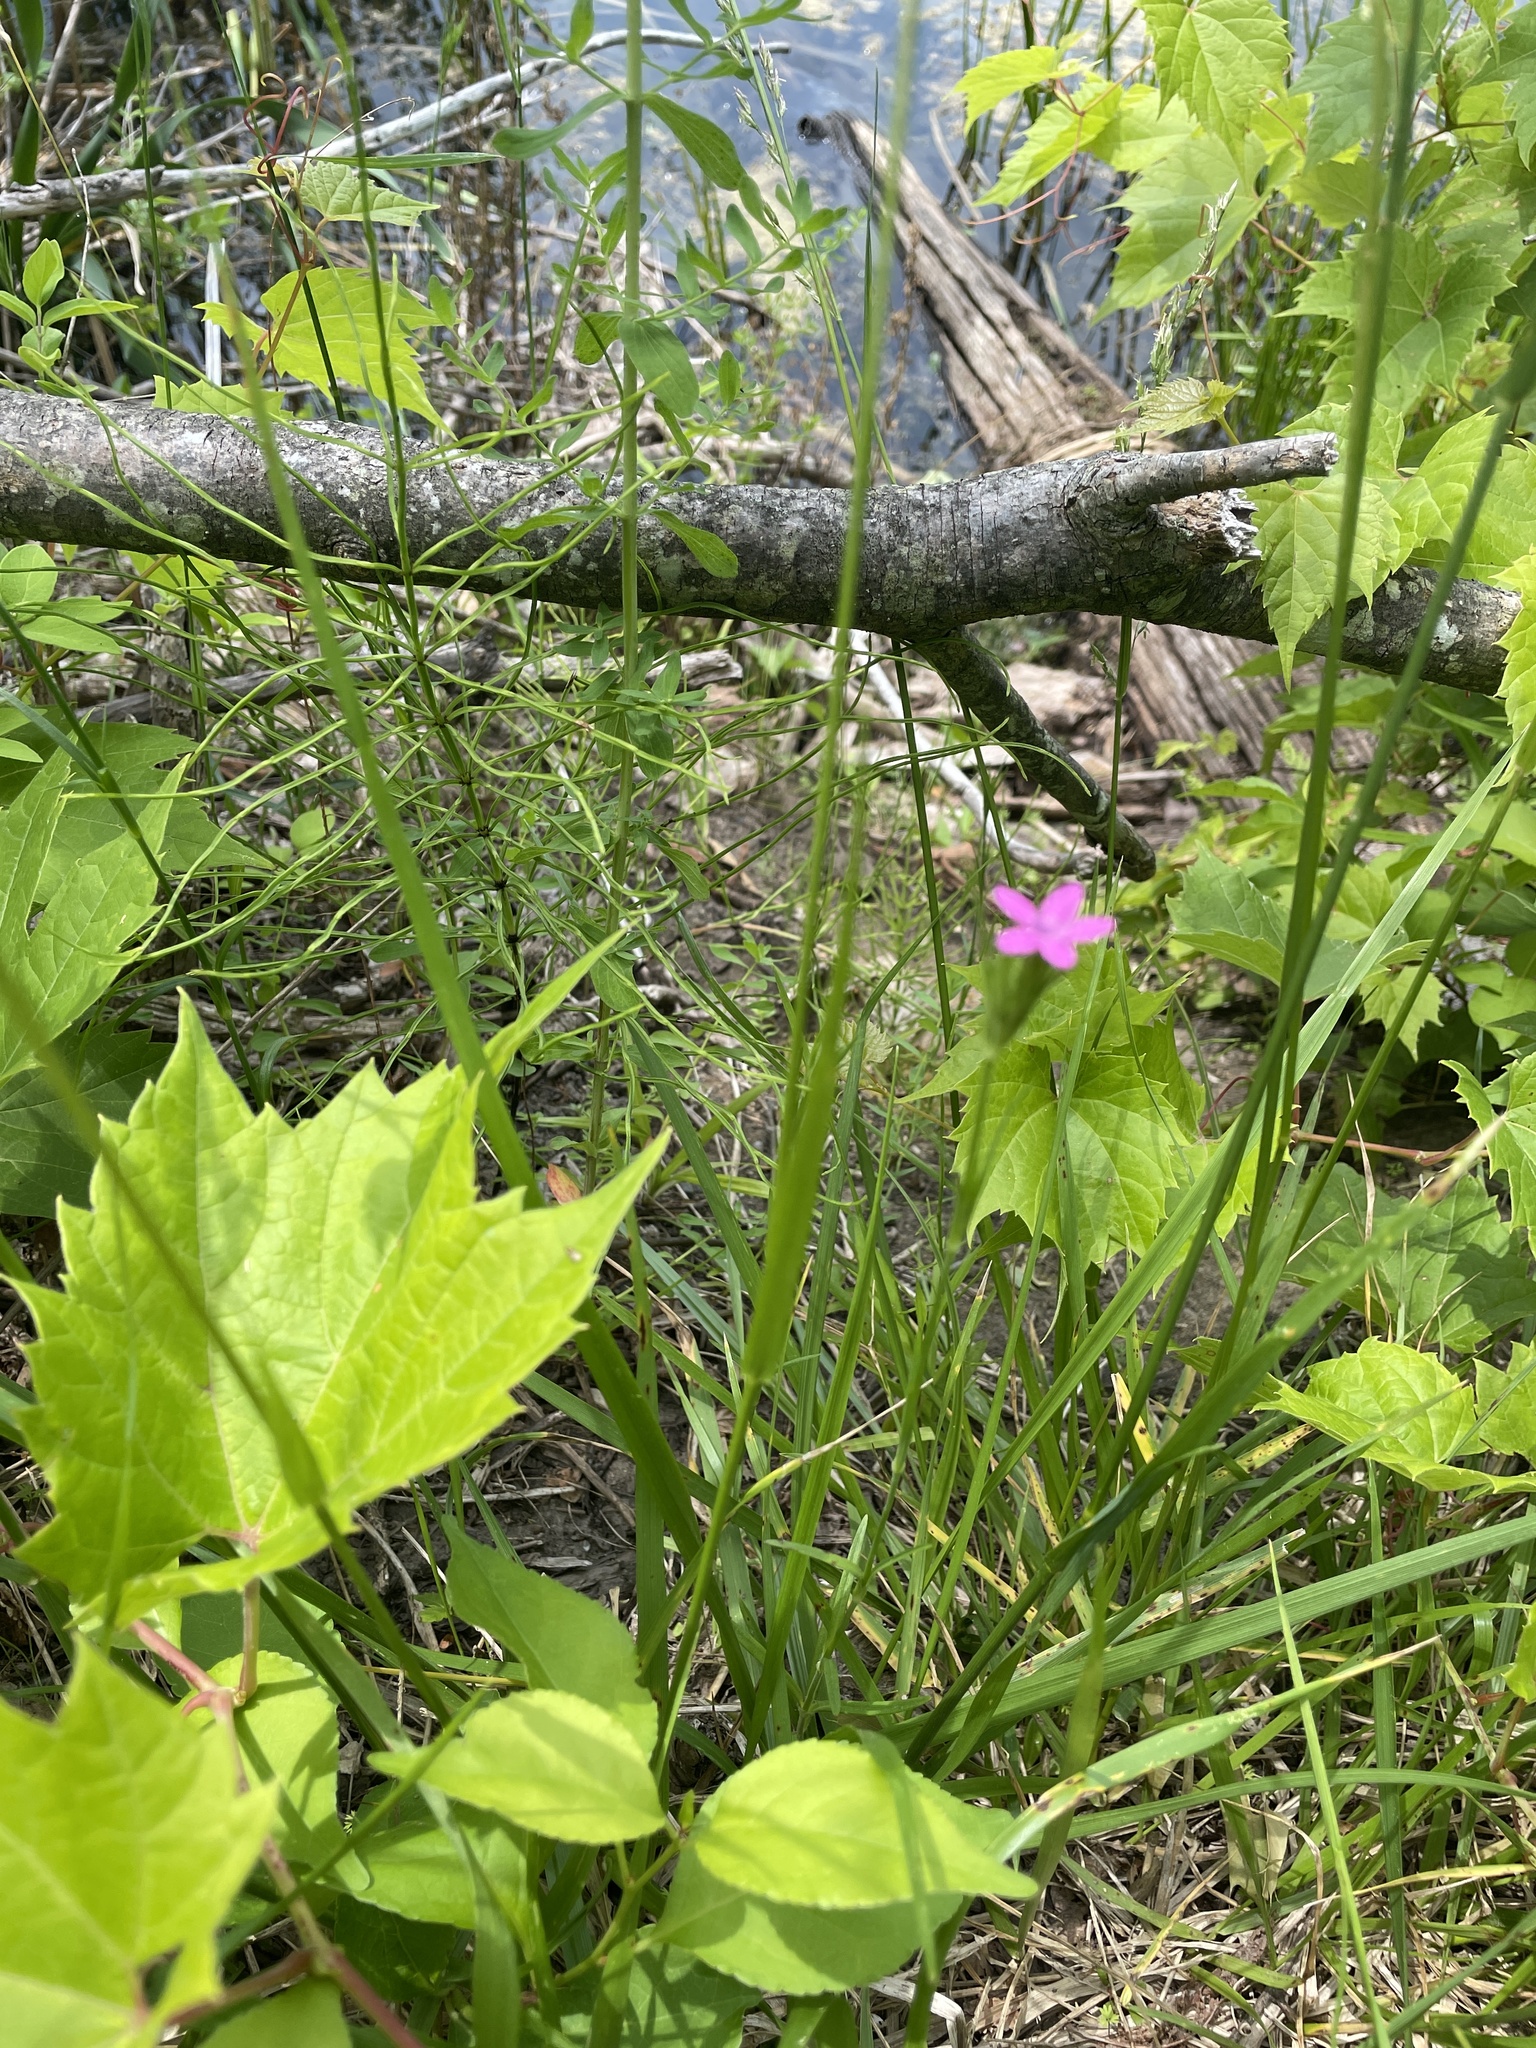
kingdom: Plantae
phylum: Tracheophyta
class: Magnoliopsida
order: Caryophyllales
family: Caryophyllaceae
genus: Dianthus
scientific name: Dianthus armeria
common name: Deptford pink
